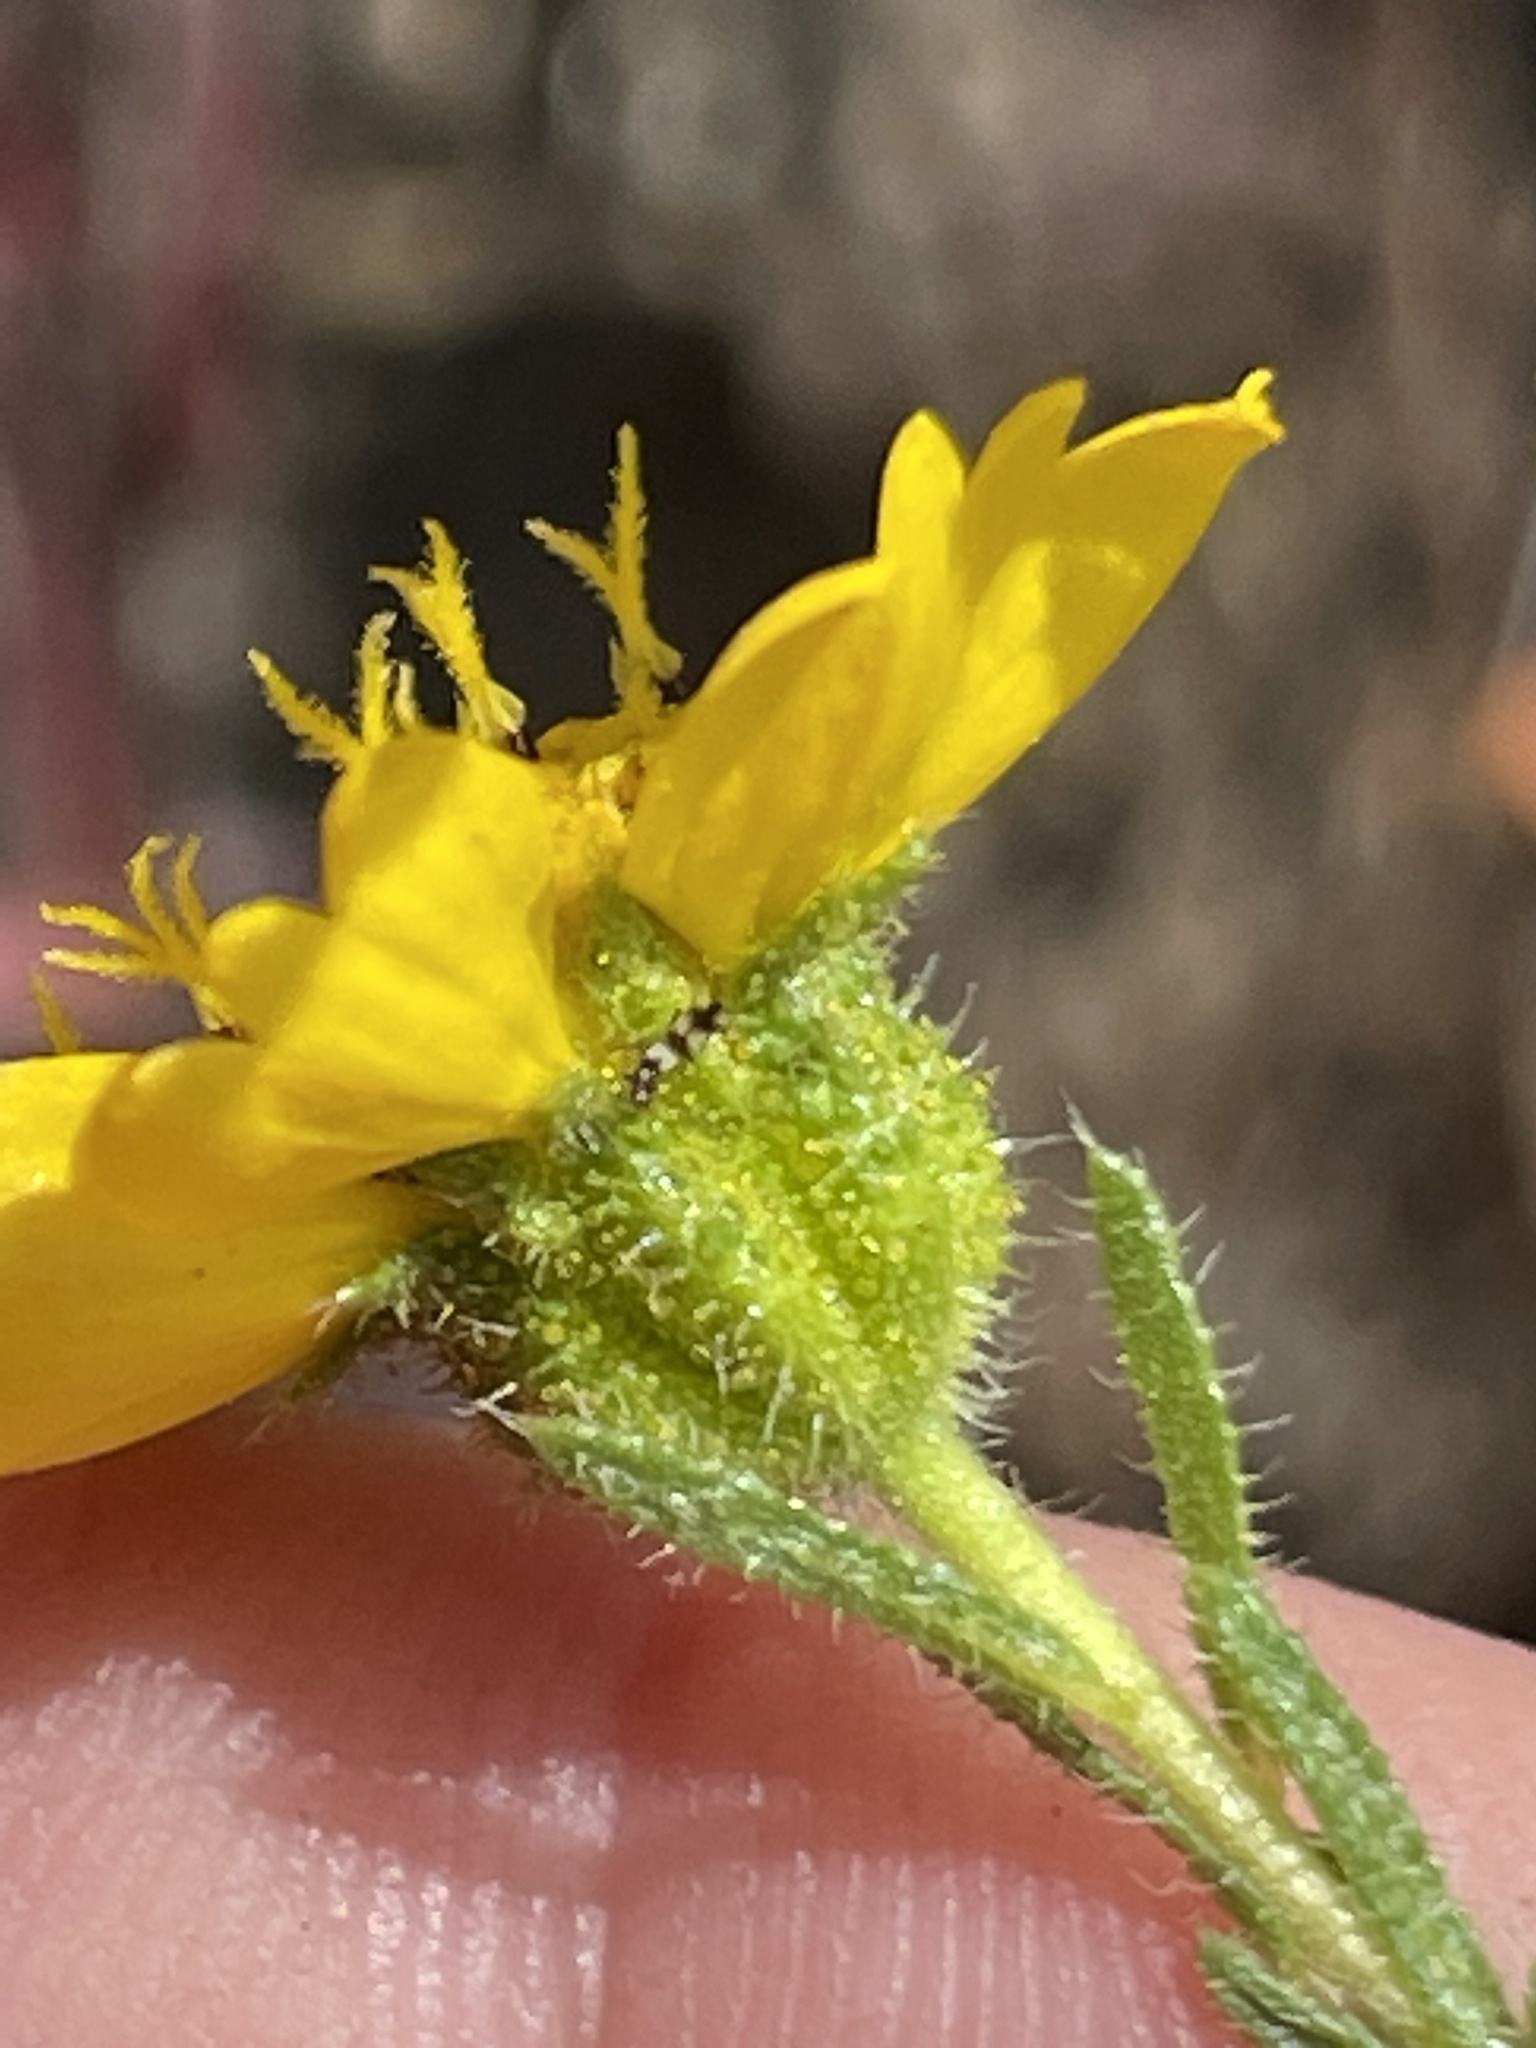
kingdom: Plantae
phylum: Tracheophyta
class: Magnoliopsida
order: Asterales
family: Asteraceae
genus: Deinandra
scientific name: Deinandra conjugens
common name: Otay tarplant
